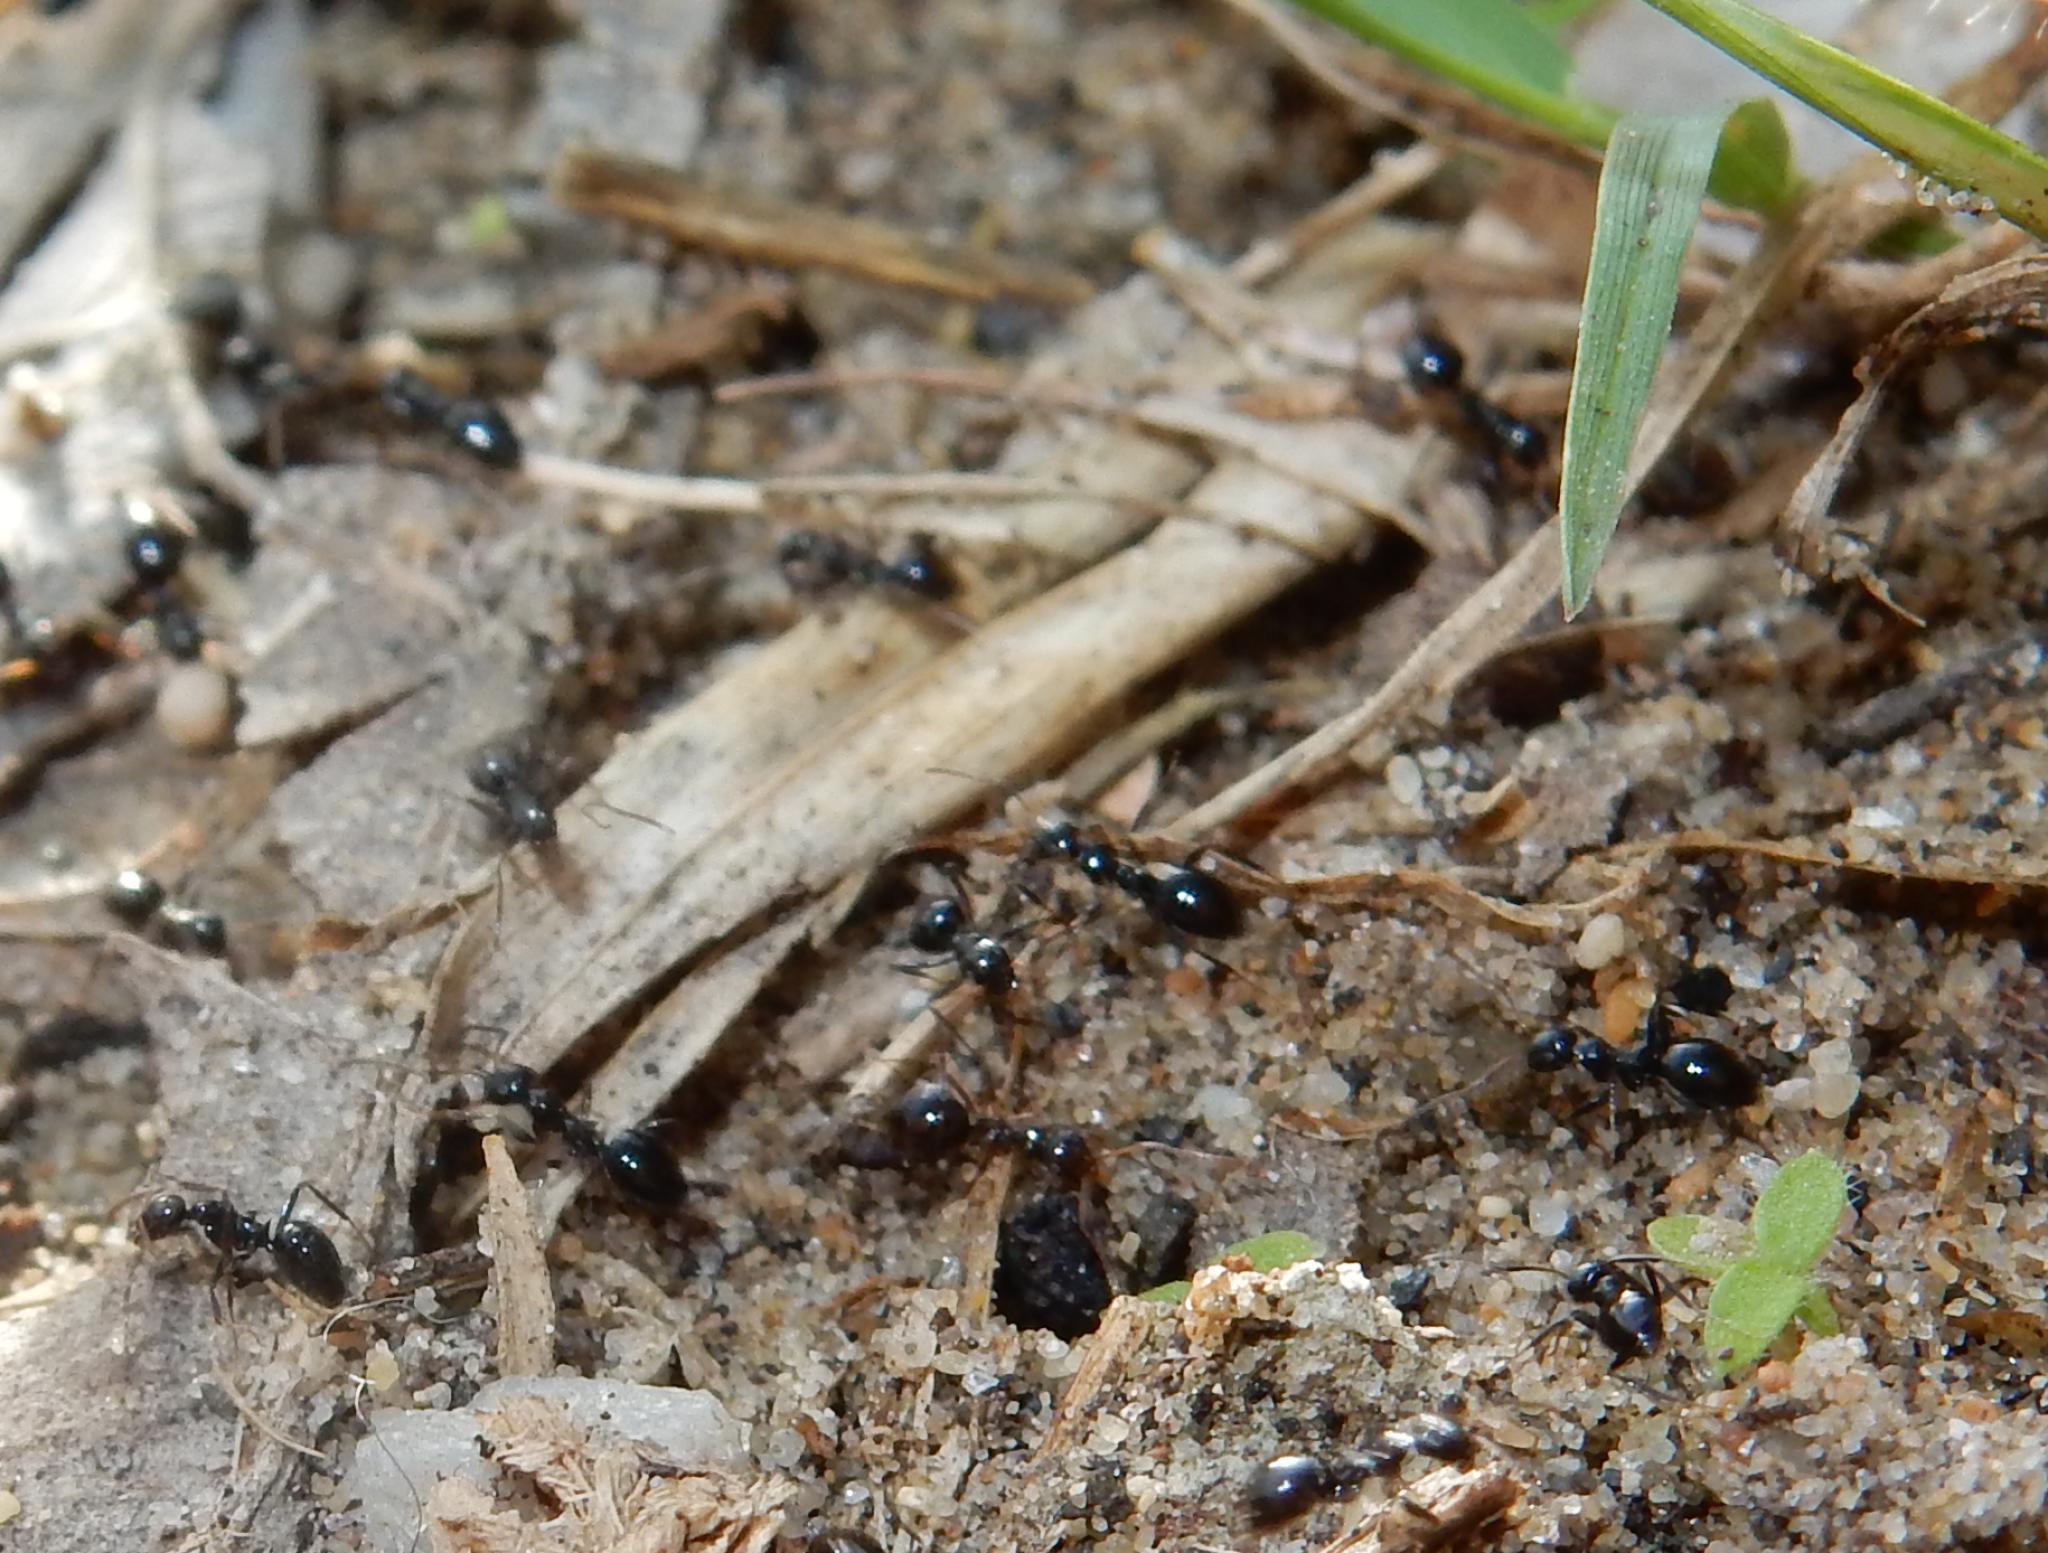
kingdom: Animalia
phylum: Arthropoda
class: Insecta
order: Hymenoptera
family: Formicidae
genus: Lepisiota
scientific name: Lepisiota capensis
